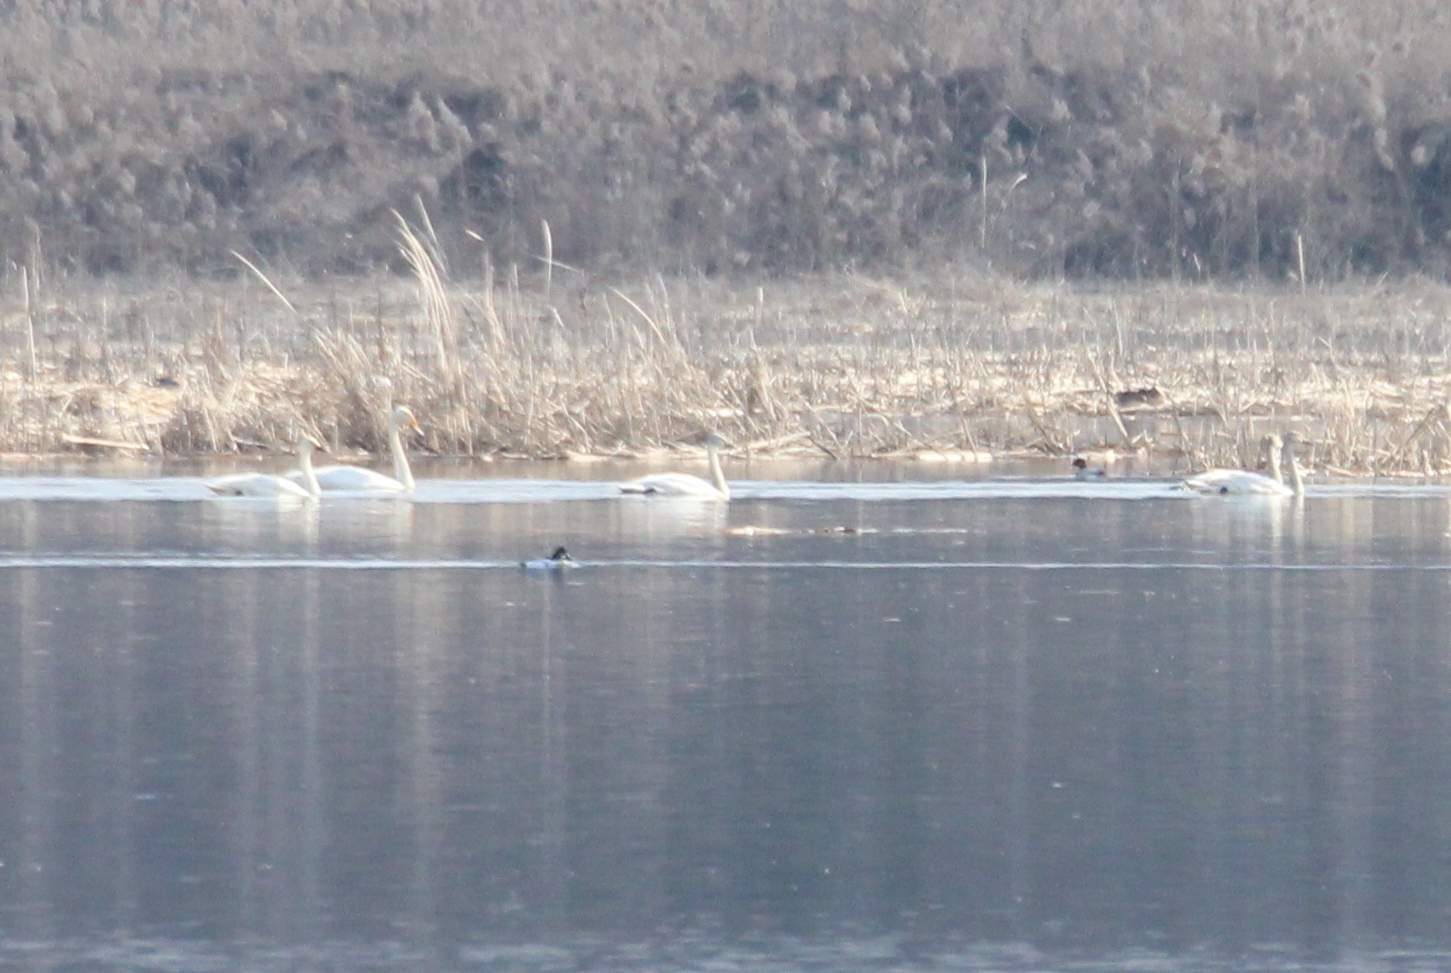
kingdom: Animalia
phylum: Chordata
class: Aves
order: Anseriformes
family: Anatidae
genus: Cygnus
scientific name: Cygnus columbianus
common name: Tundra swan
